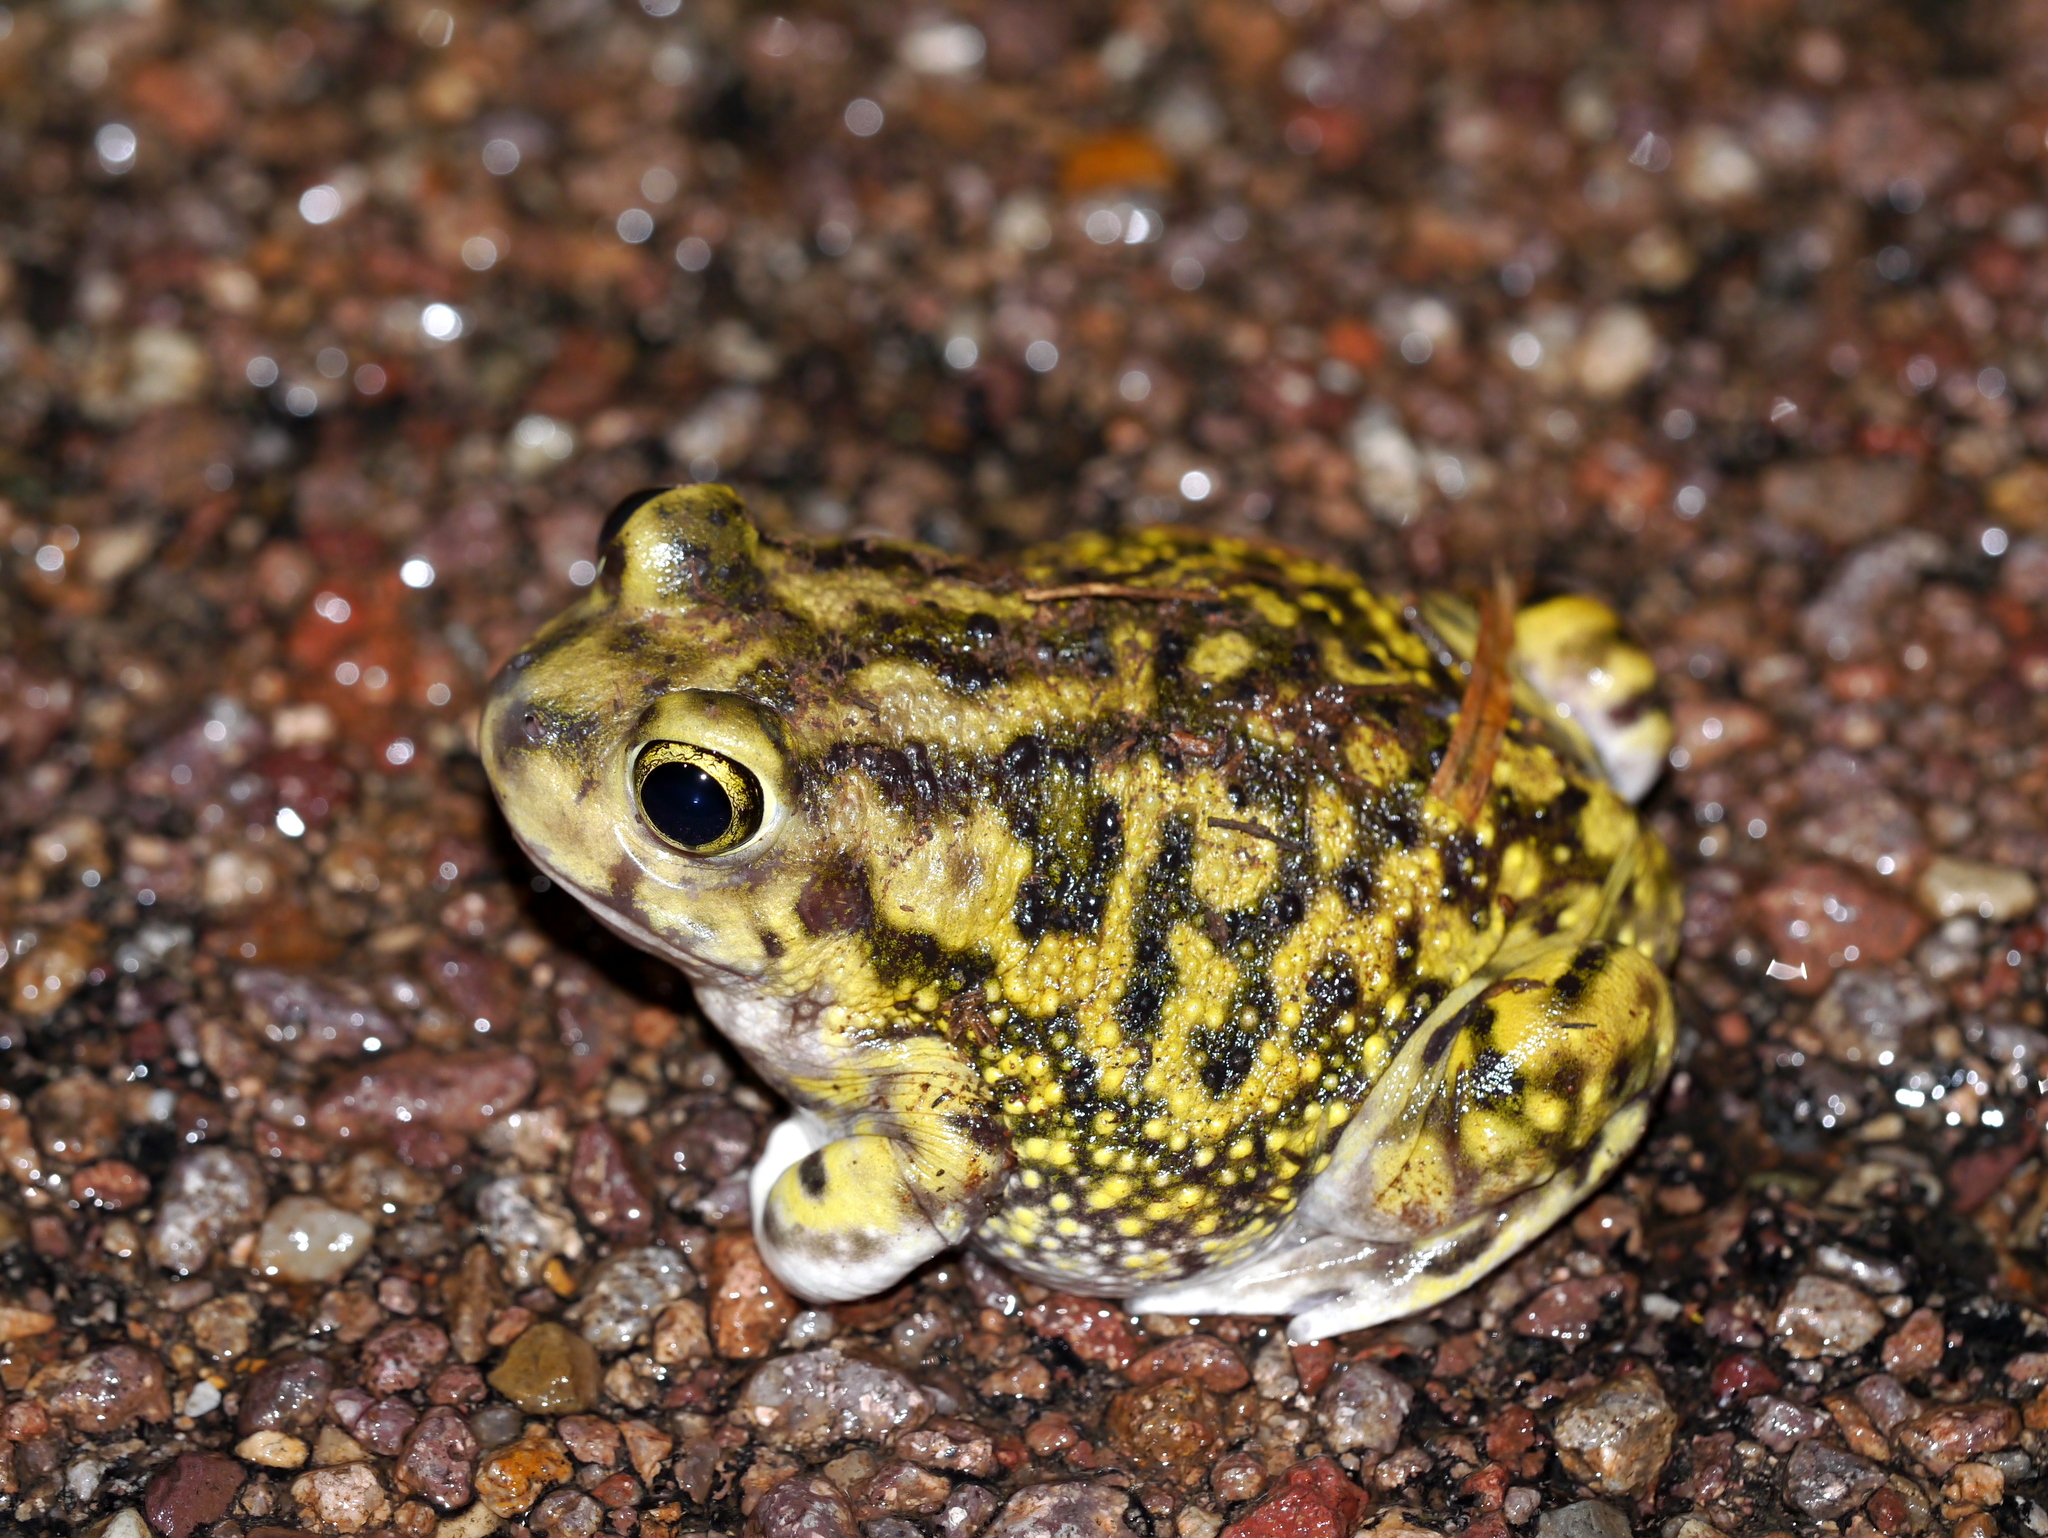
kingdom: Animalia
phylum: Chordata
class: Amphibia
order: Anura
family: Scaphiopodidae
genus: Scaphiopus
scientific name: Scaphiopus couchii
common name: Couch's spadefoot toad
